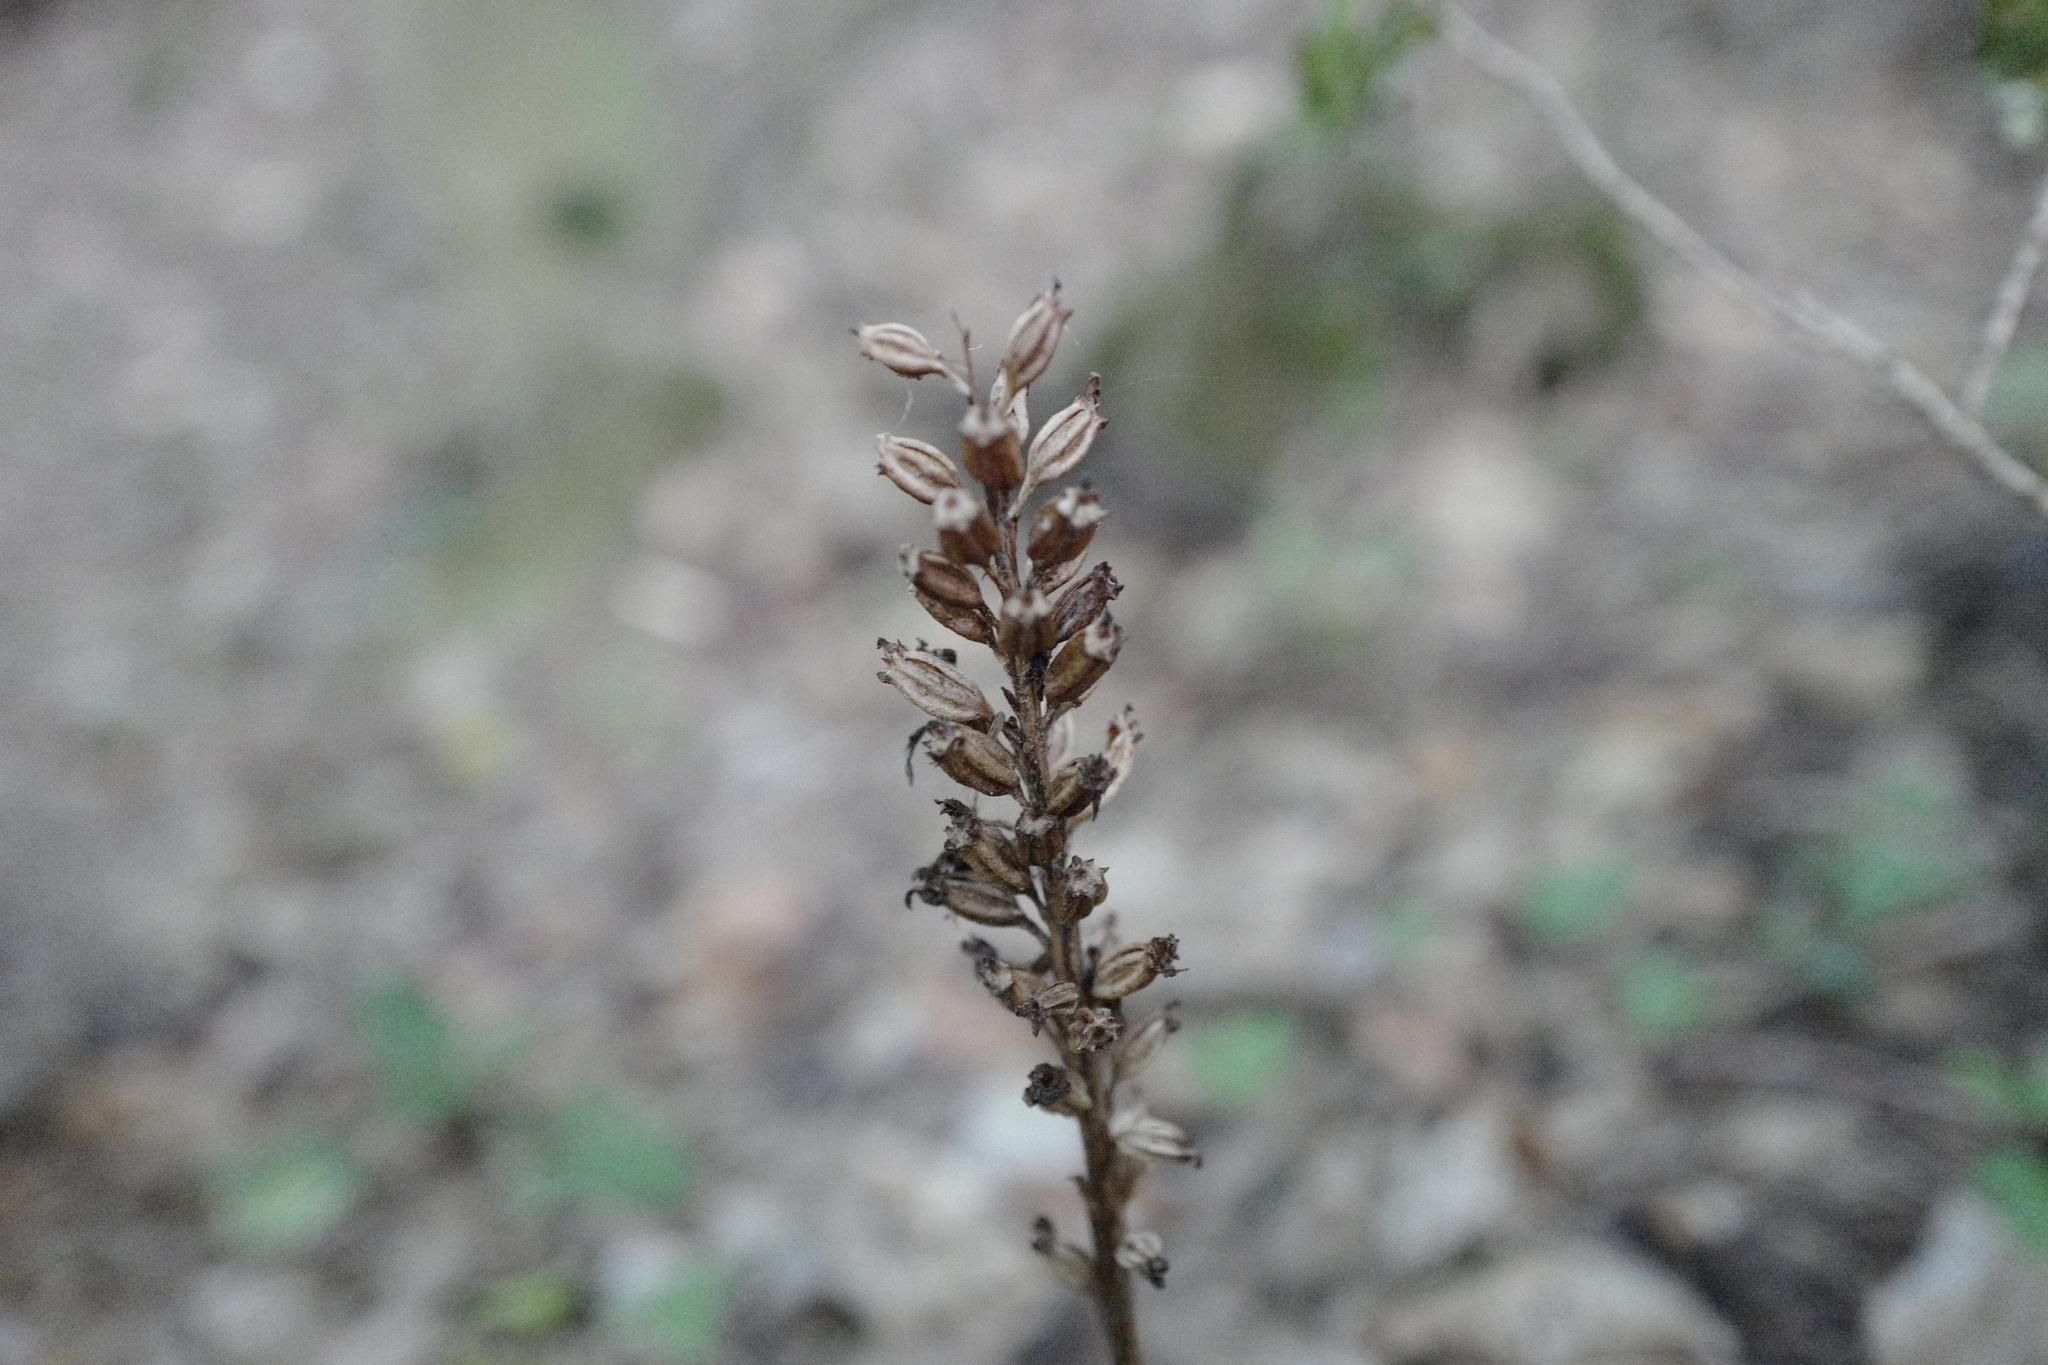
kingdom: Plantae
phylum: Tracheophyta
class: Liliopsida
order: Asparagales
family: Orchidaceae
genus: Neottia
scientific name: Neottia nidus-avis
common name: Bird's-nest orchid
